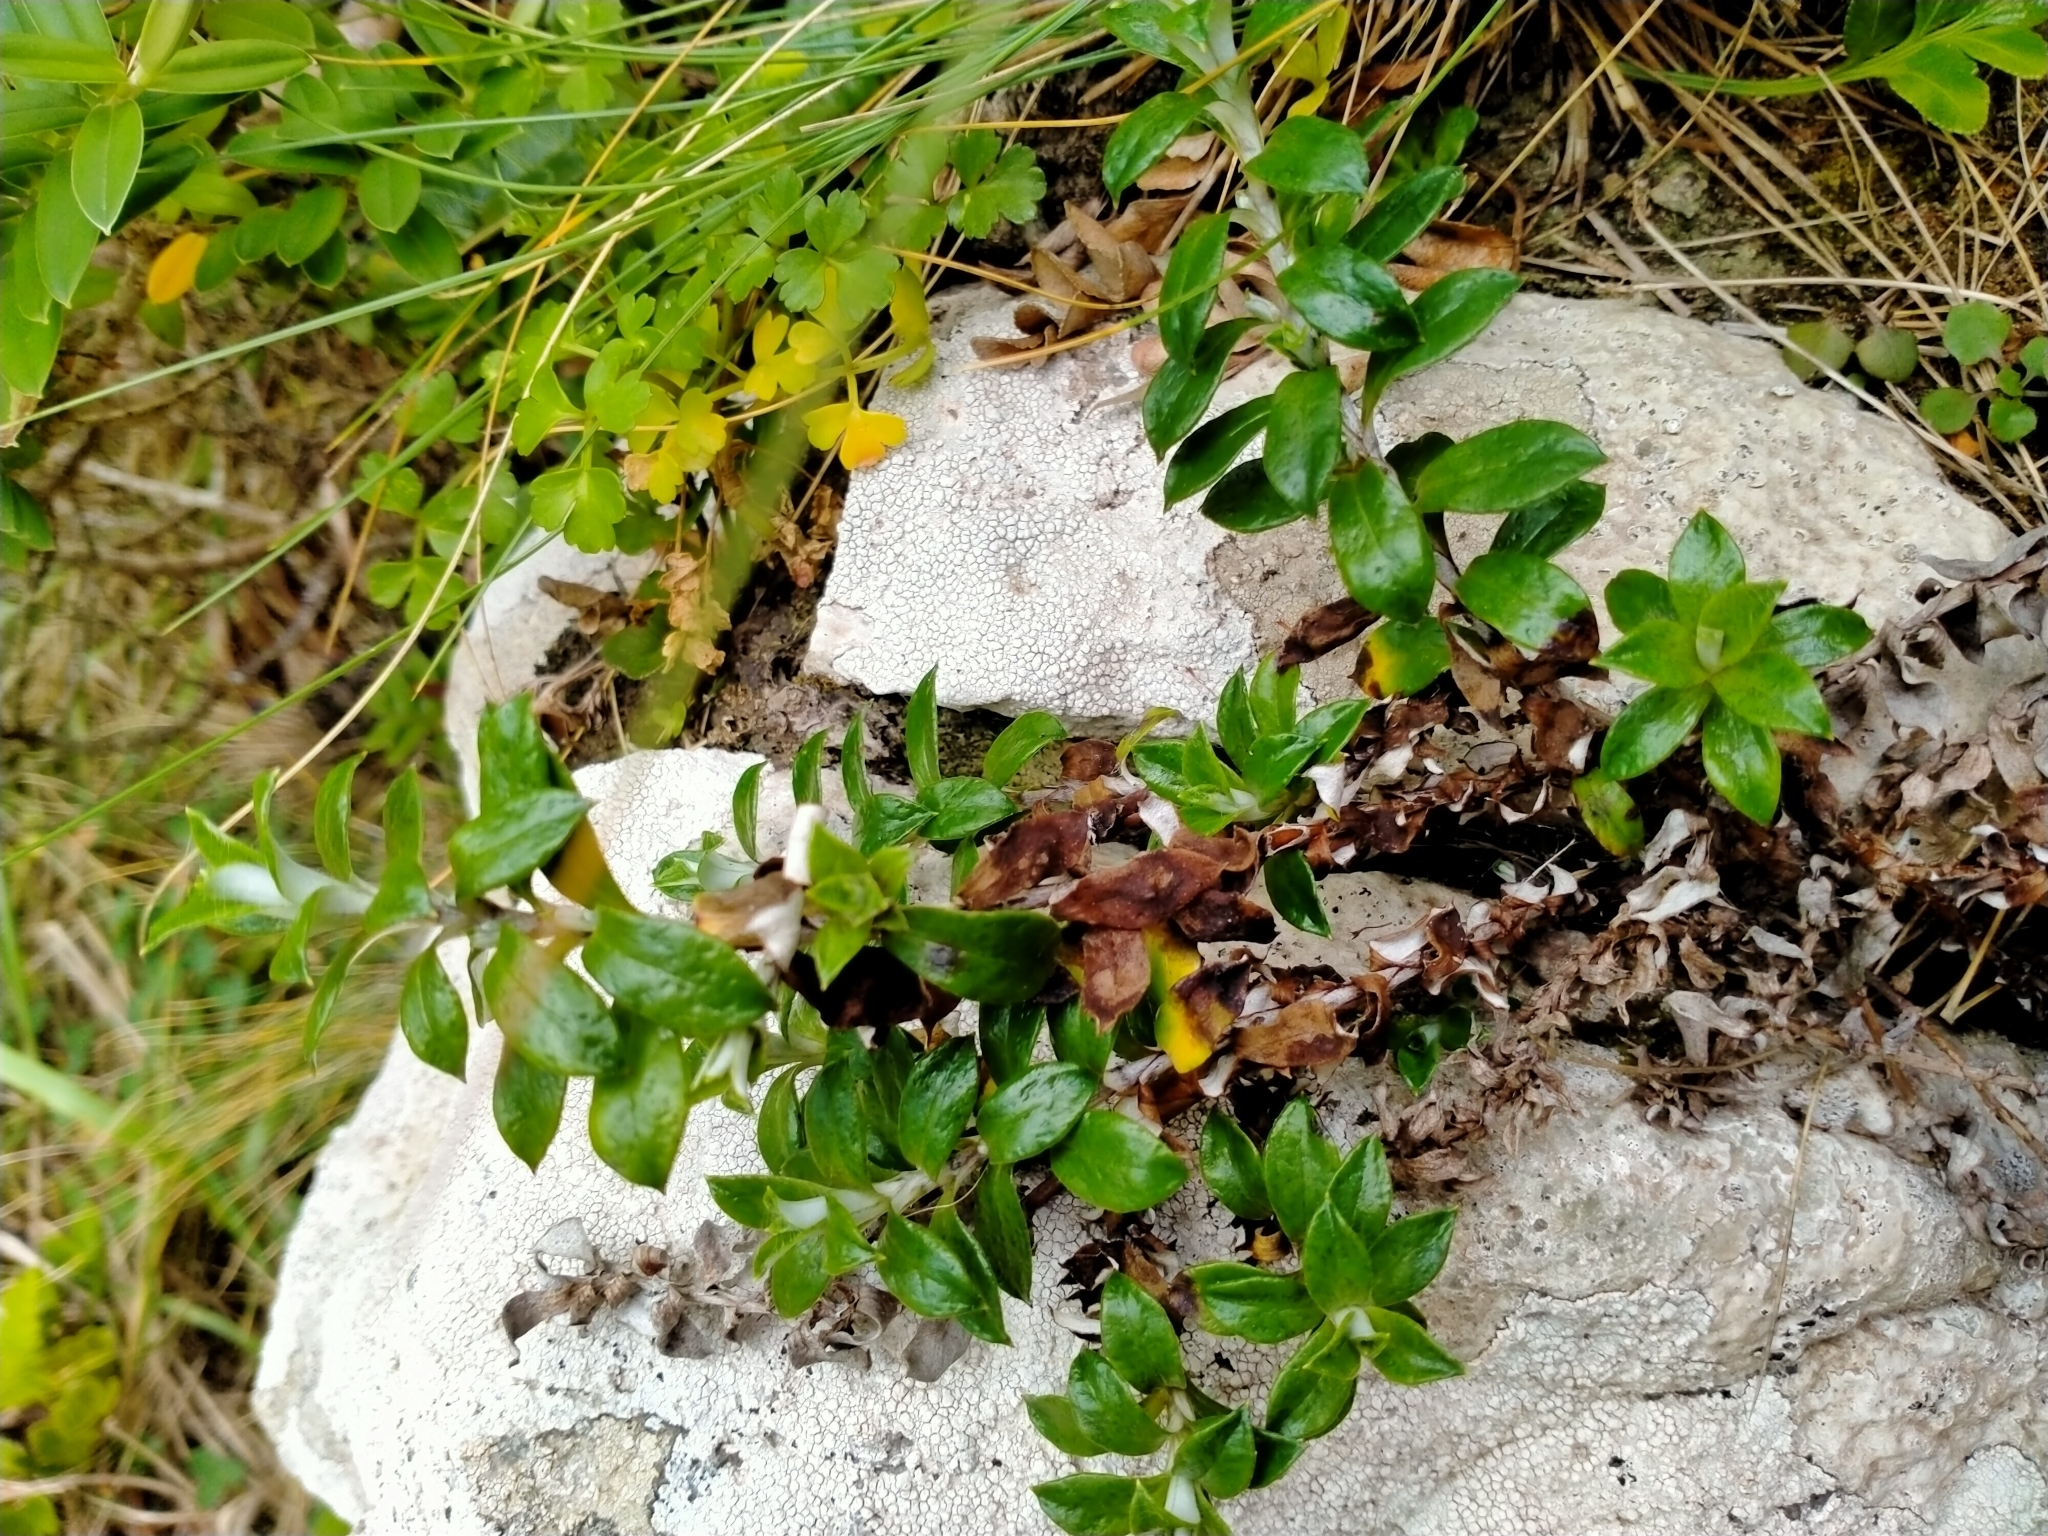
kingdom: Plantae
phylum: Tracheophyta
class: Magnoliopsida
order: Asterales
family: Asteraceae
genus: Anaphalioides
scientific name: Anaphalioides hookeri
